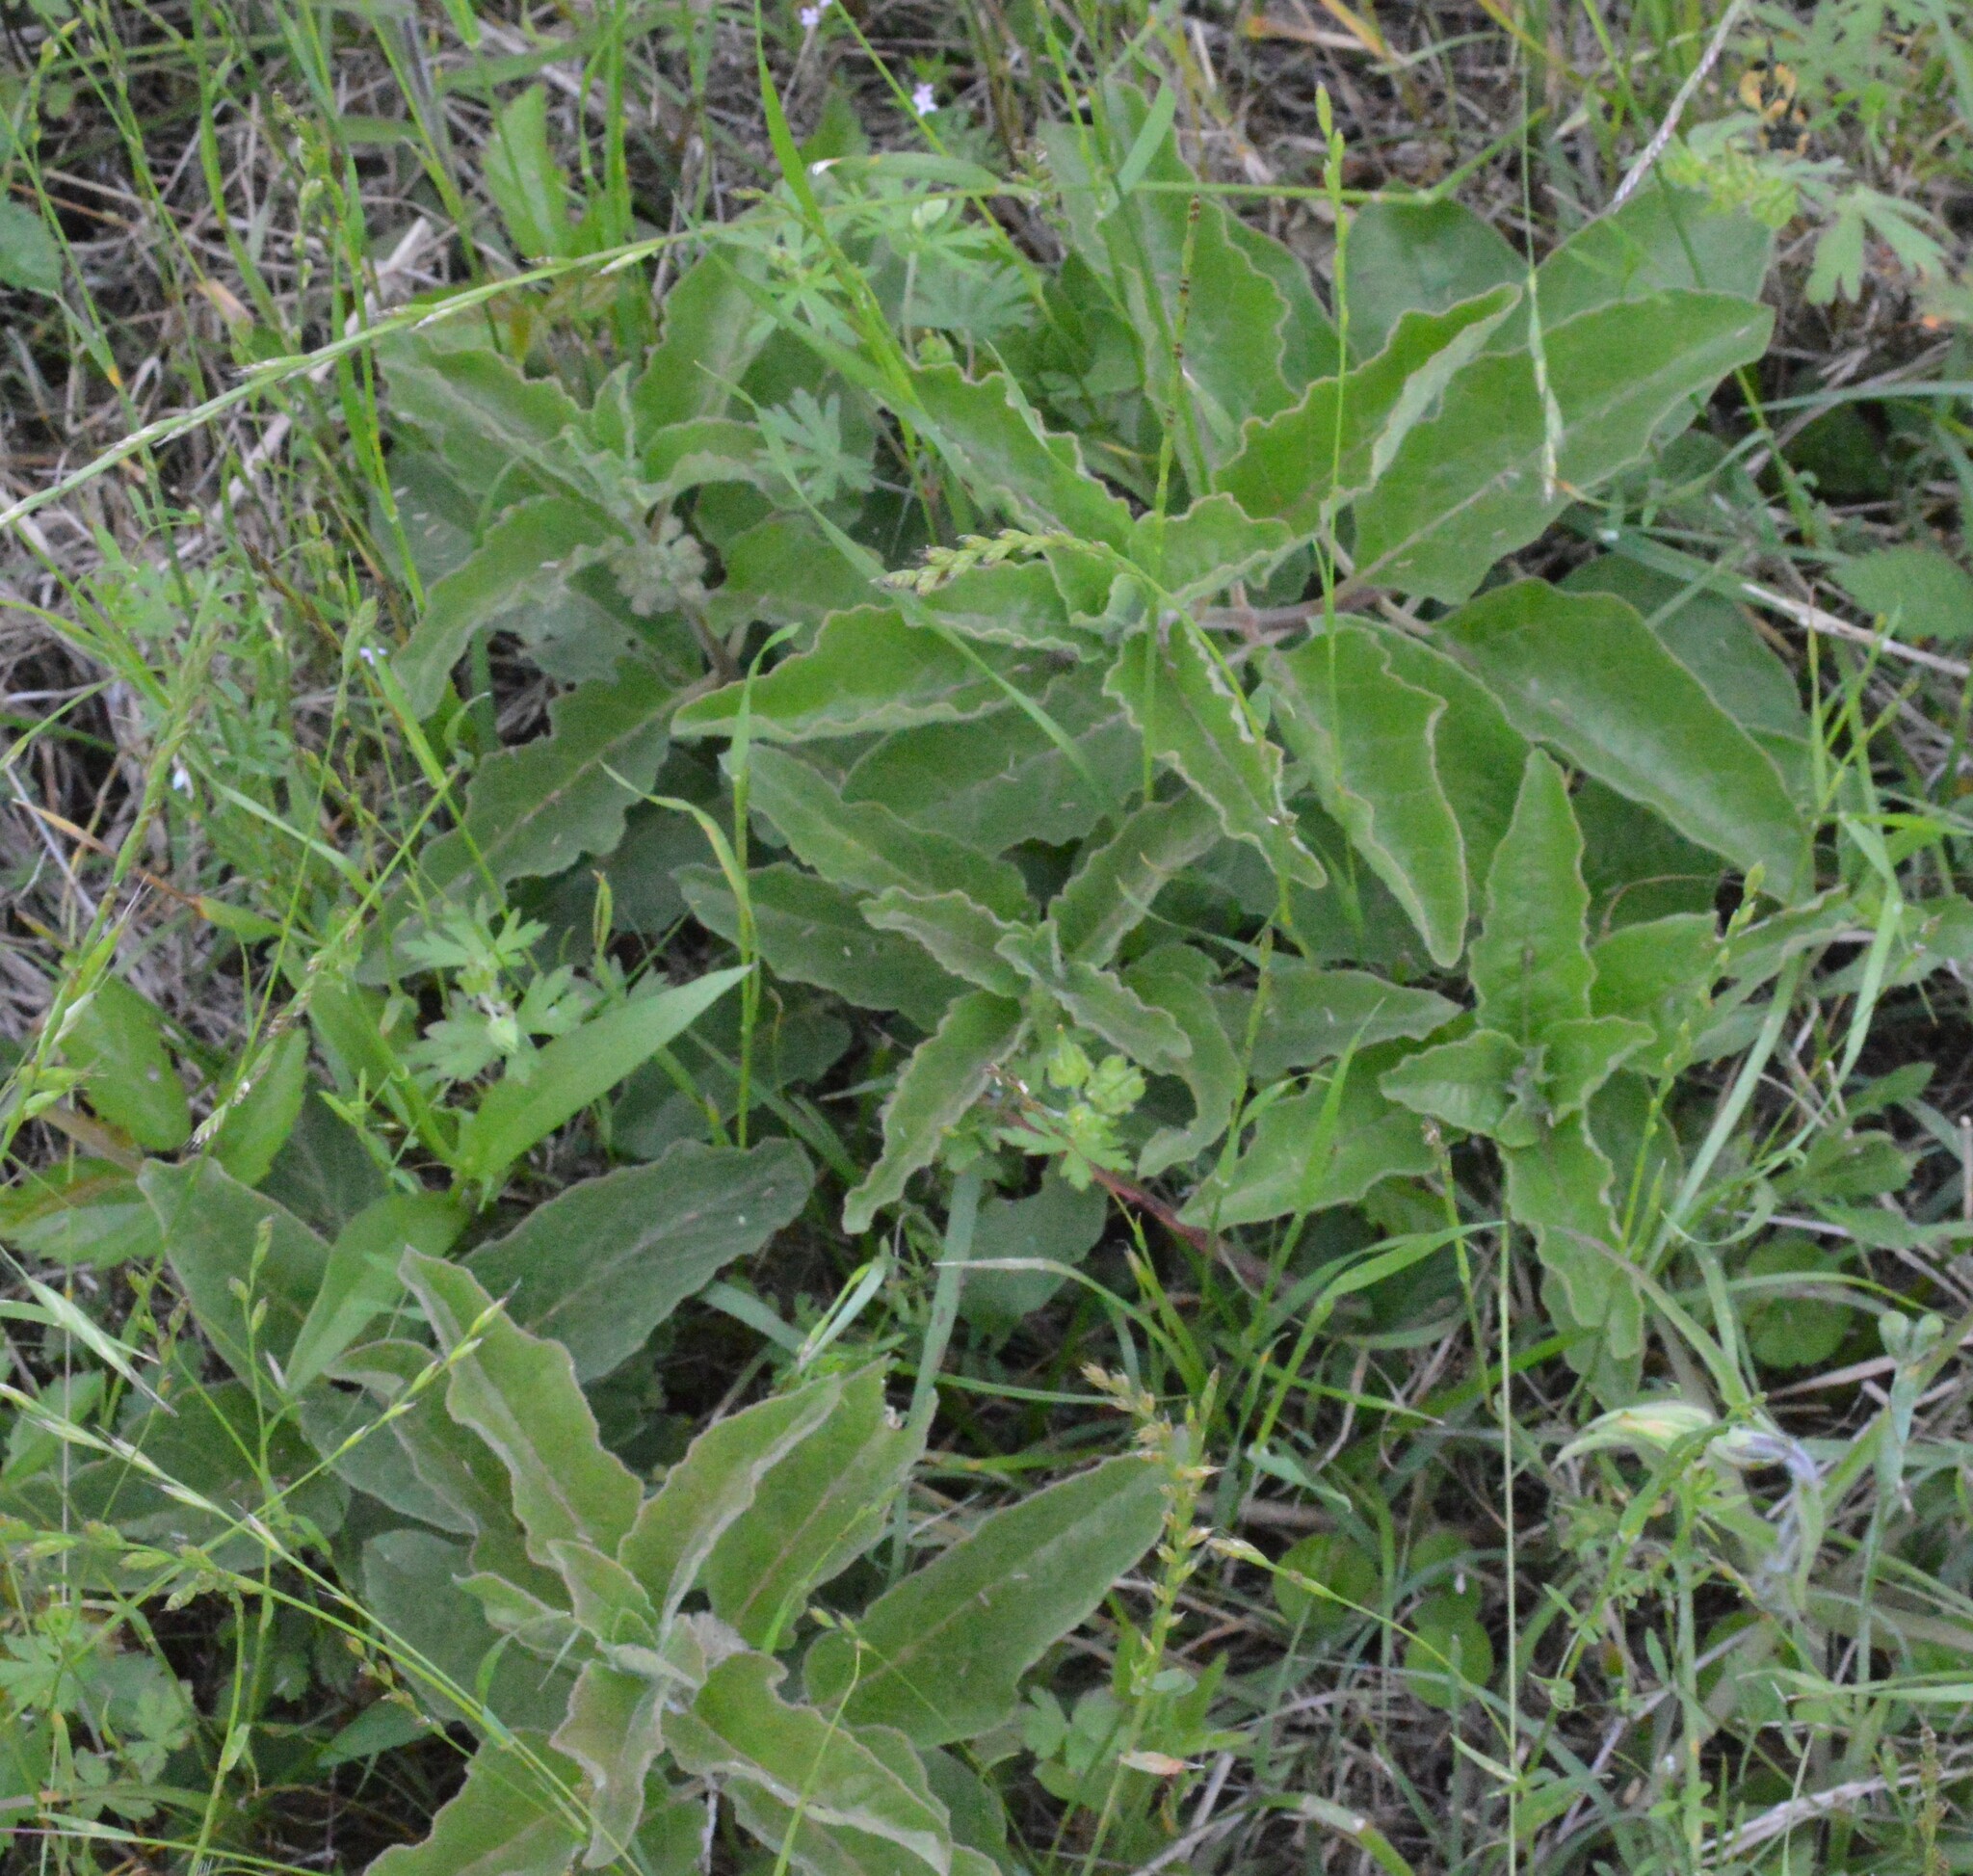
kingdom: Plantae
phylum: Tracheophyta
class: Magnoliopsida
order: Gentianales
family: Apocynaceae
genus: Asclepias
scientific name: Asclepias oenotheroides
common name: Zizotes milkweed
